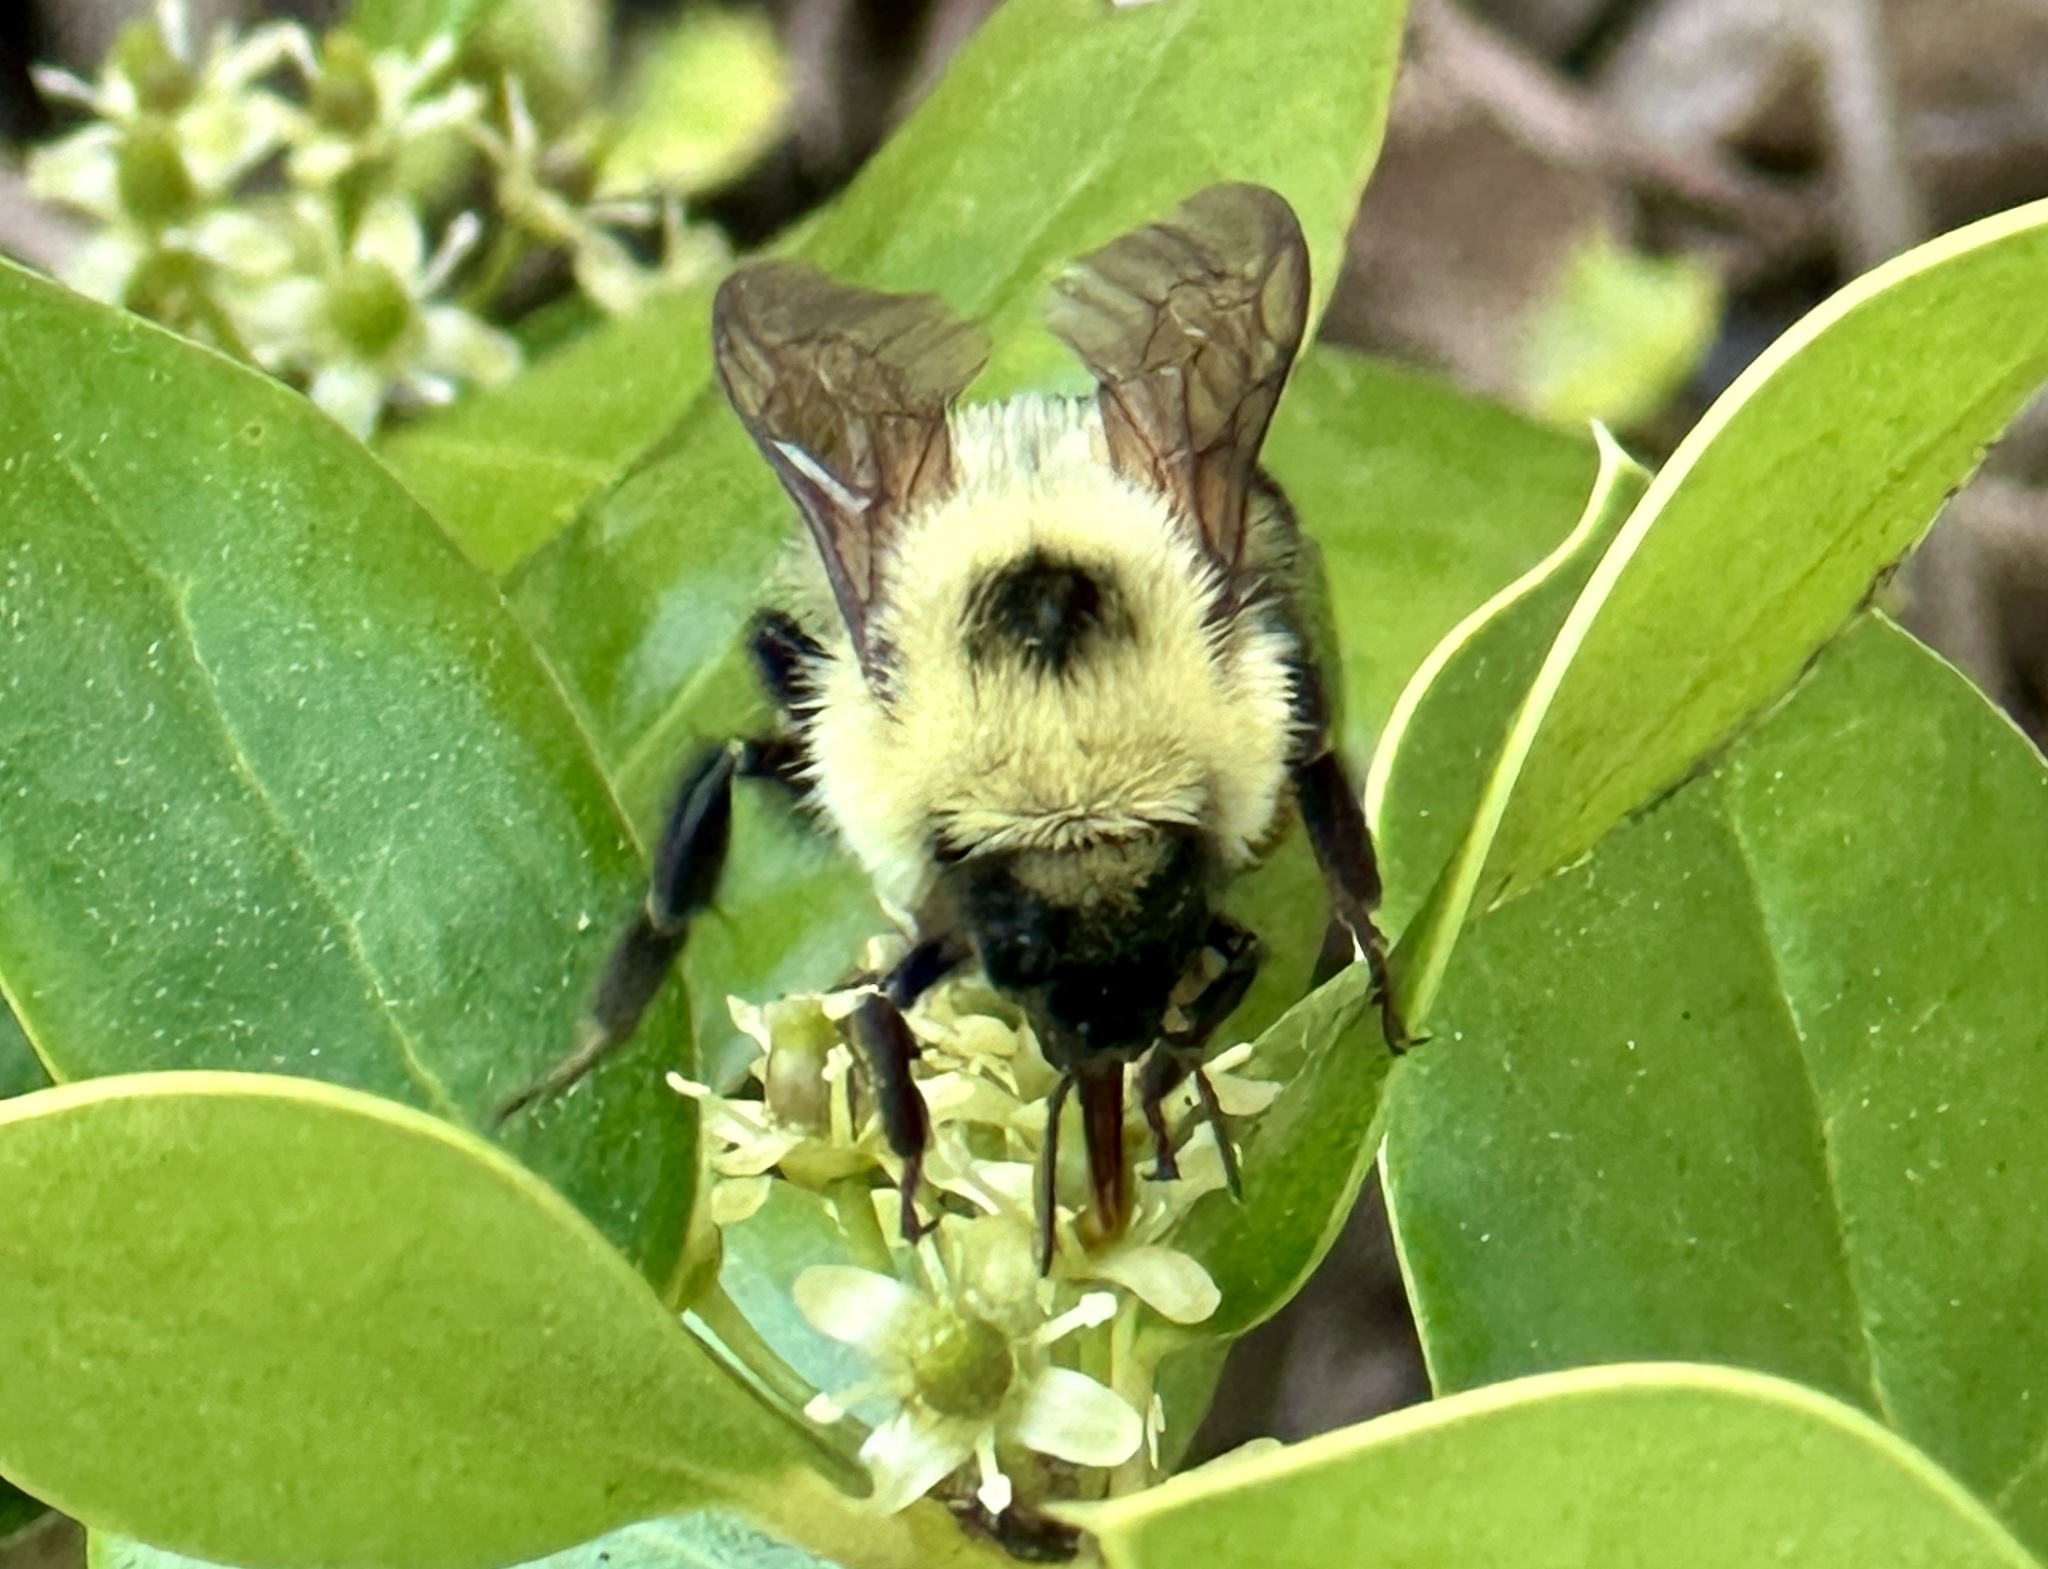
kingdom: Animalia
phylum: Arthropoda
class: Insecta
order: Hymenoptera
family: Apidae
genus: Bombus
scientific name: Bombus bimaculatus
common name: Two-spotted bumble bee
